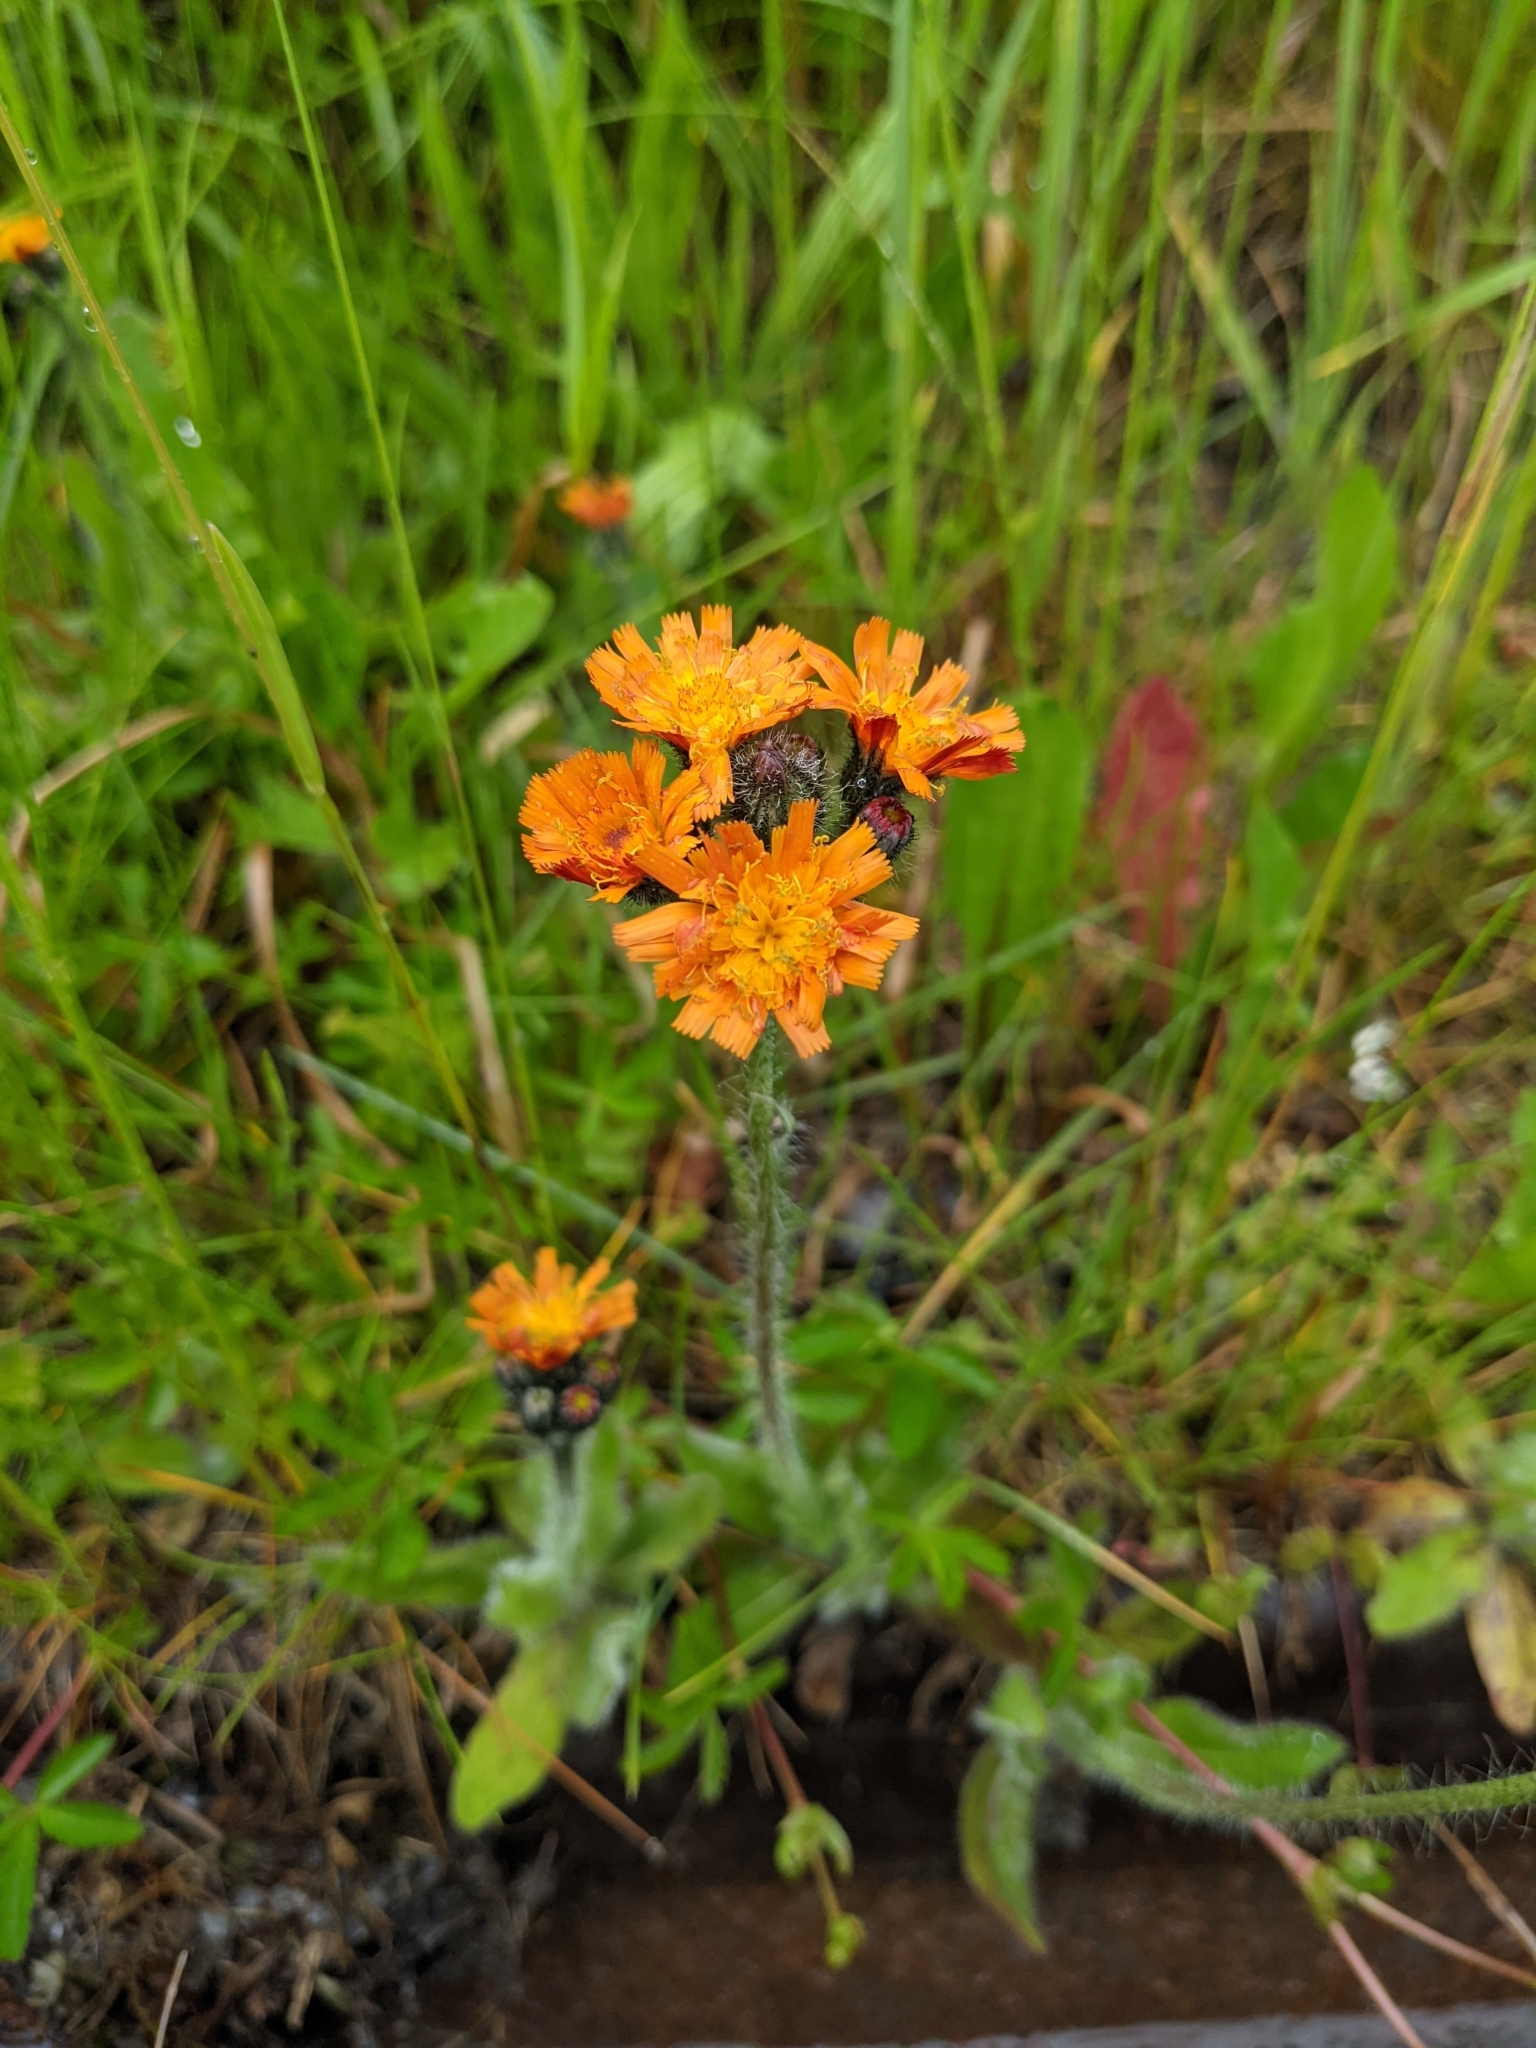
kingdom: Plantae
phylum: Tracheophyta
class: Magnoliopsida
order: Asterales
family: Asteraceae
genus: Pilosella
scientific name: Pilosella aurantiaca
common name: Fox-and-cubs
